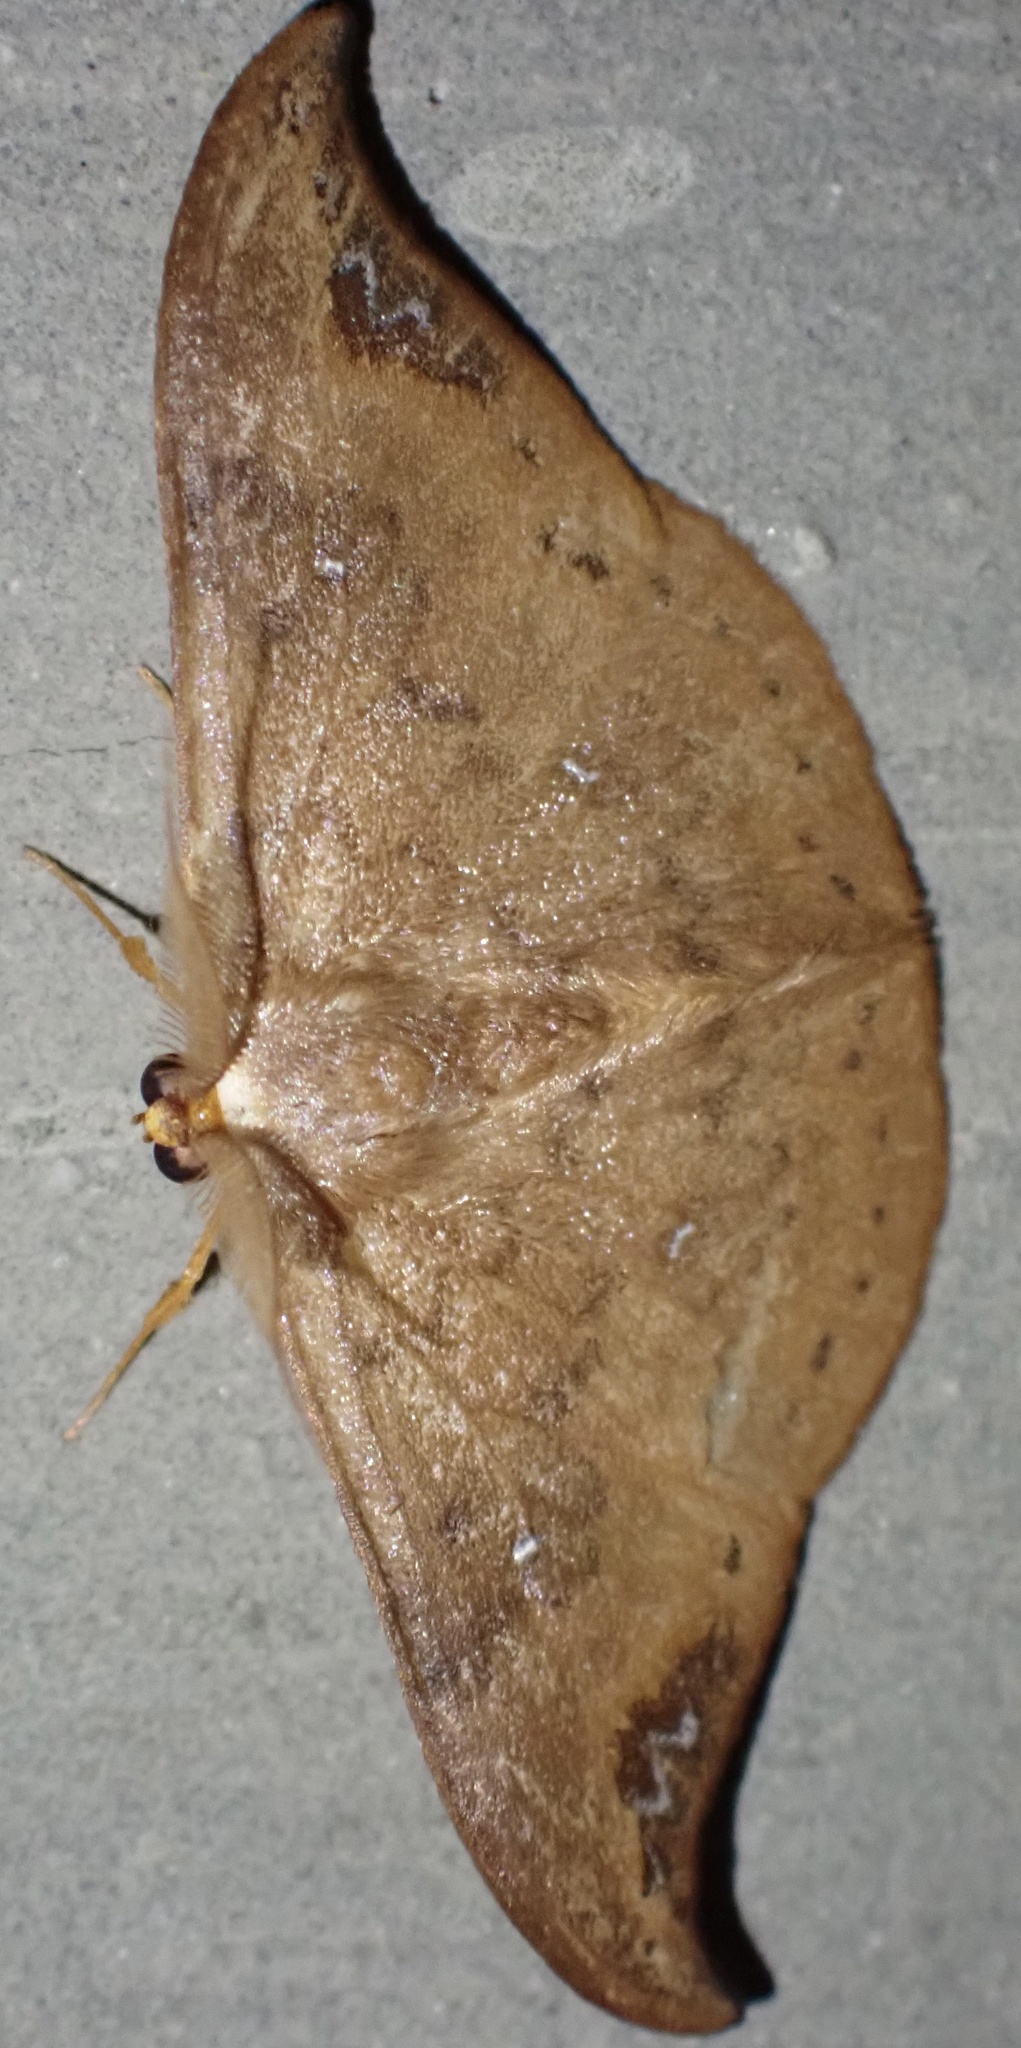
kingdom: Animalia
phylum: Arthropoda
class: Insecta
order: Lepidoptera
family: Drepanidae
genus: Tridrepana
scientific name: Tridrepana olivacea
